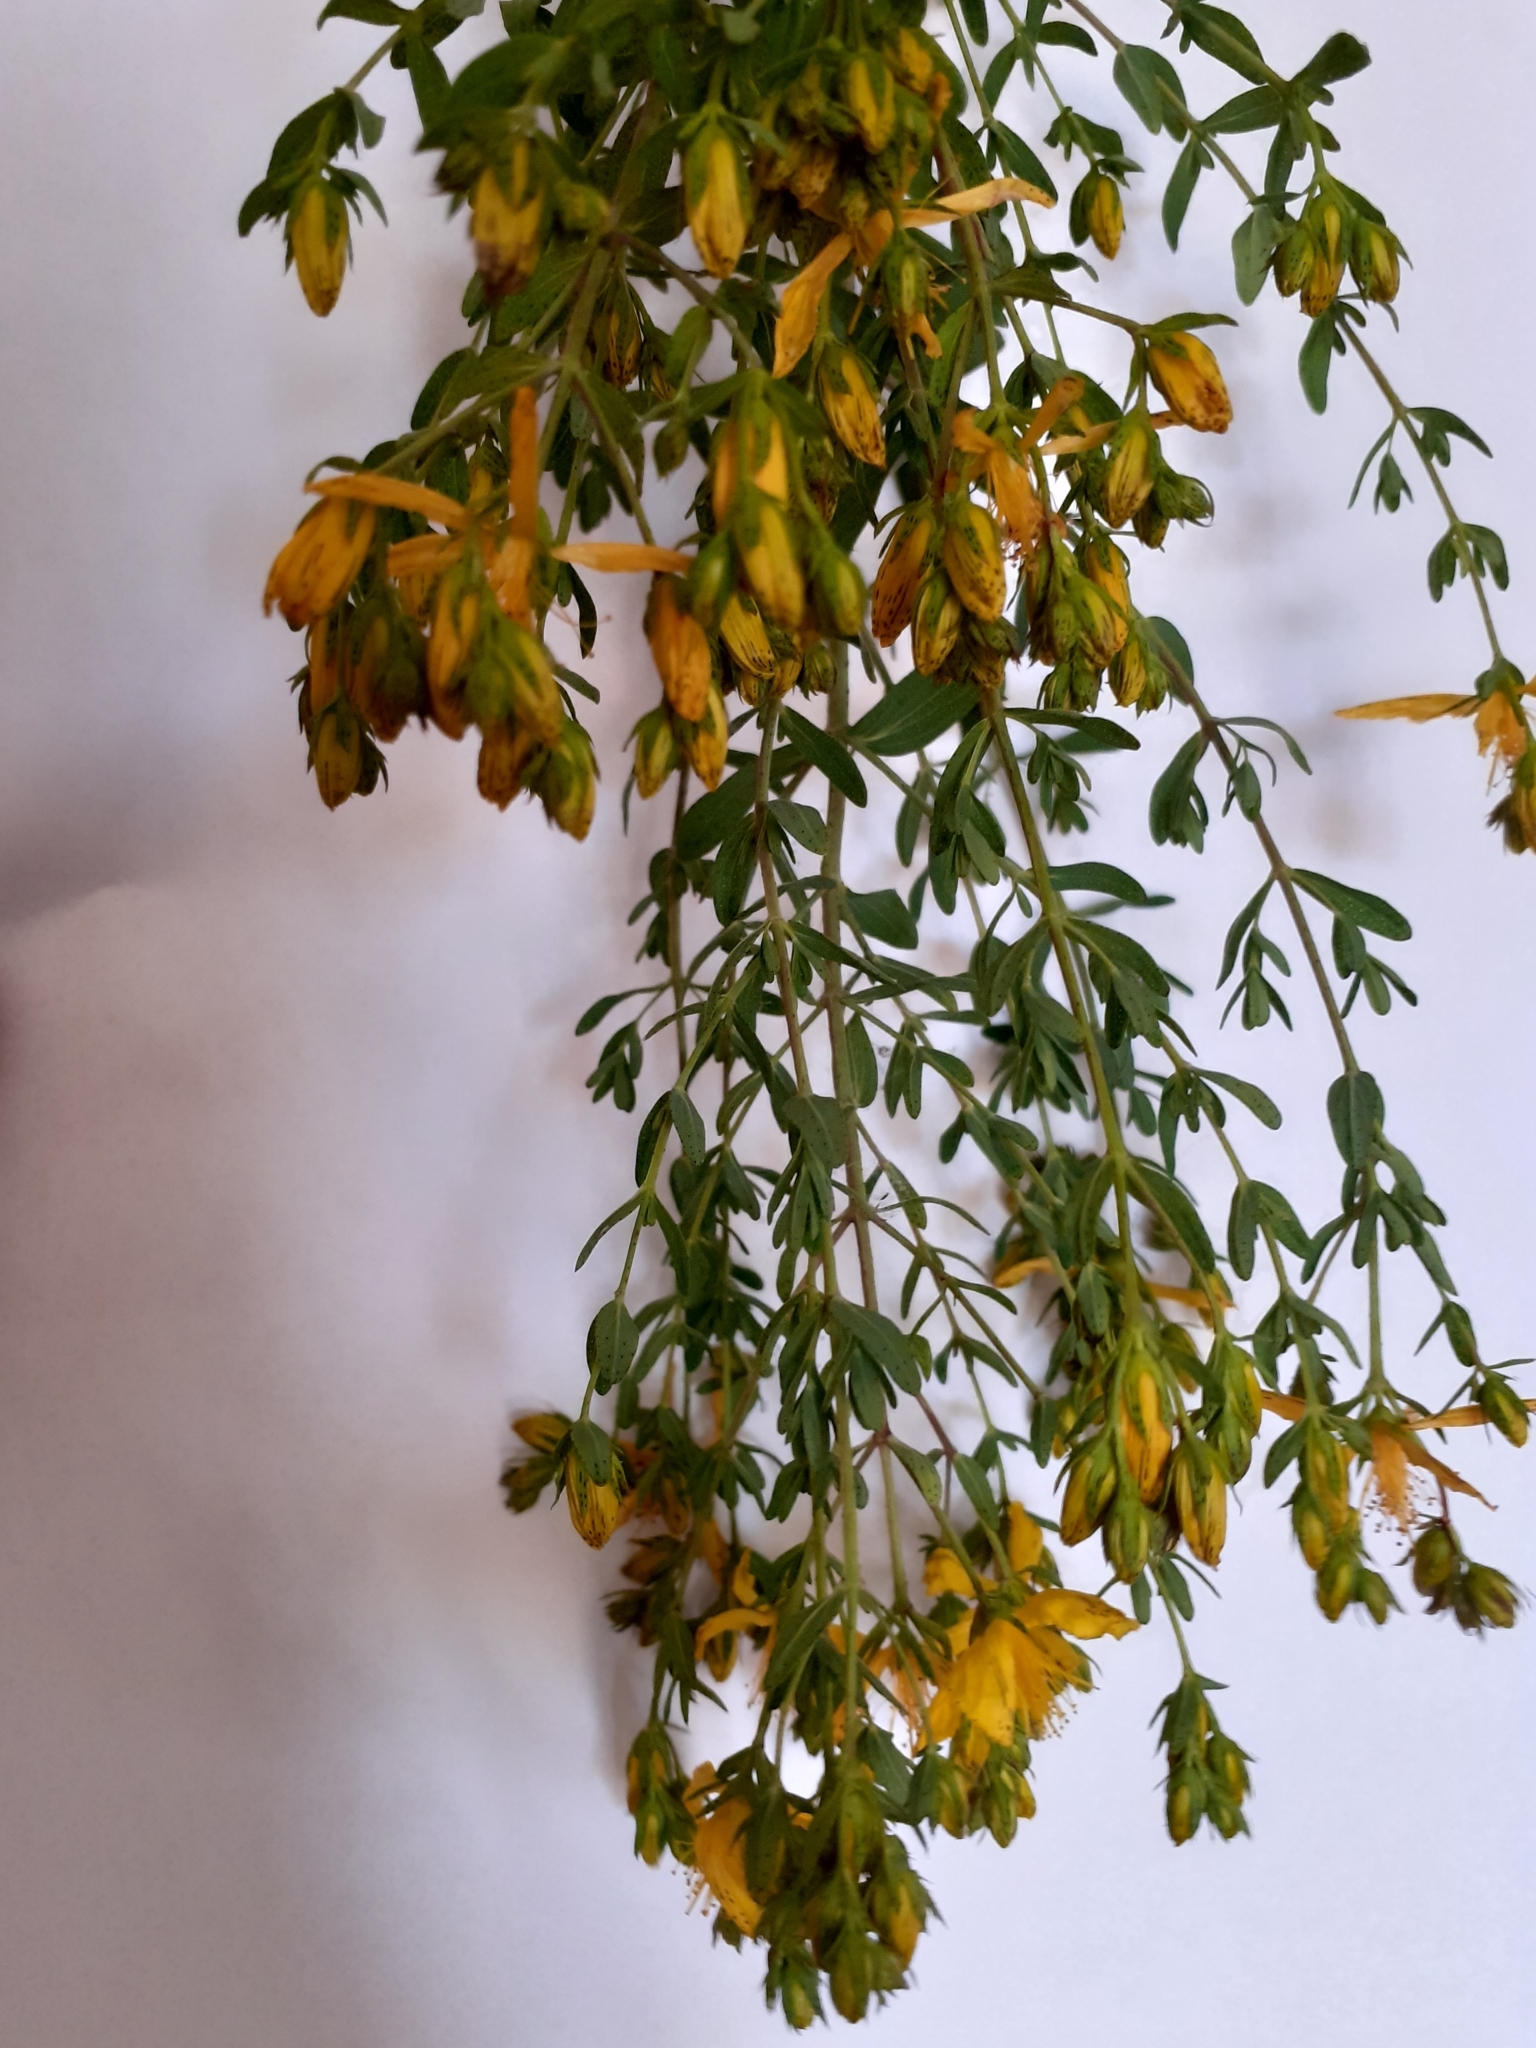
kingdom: Plantae
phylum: Tracheophyta
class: Magnoliopsida
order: Malpighiales
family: Hypericaceae
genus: Hypericum
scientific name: Hypericum perforatum
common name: Common st. johnswort
